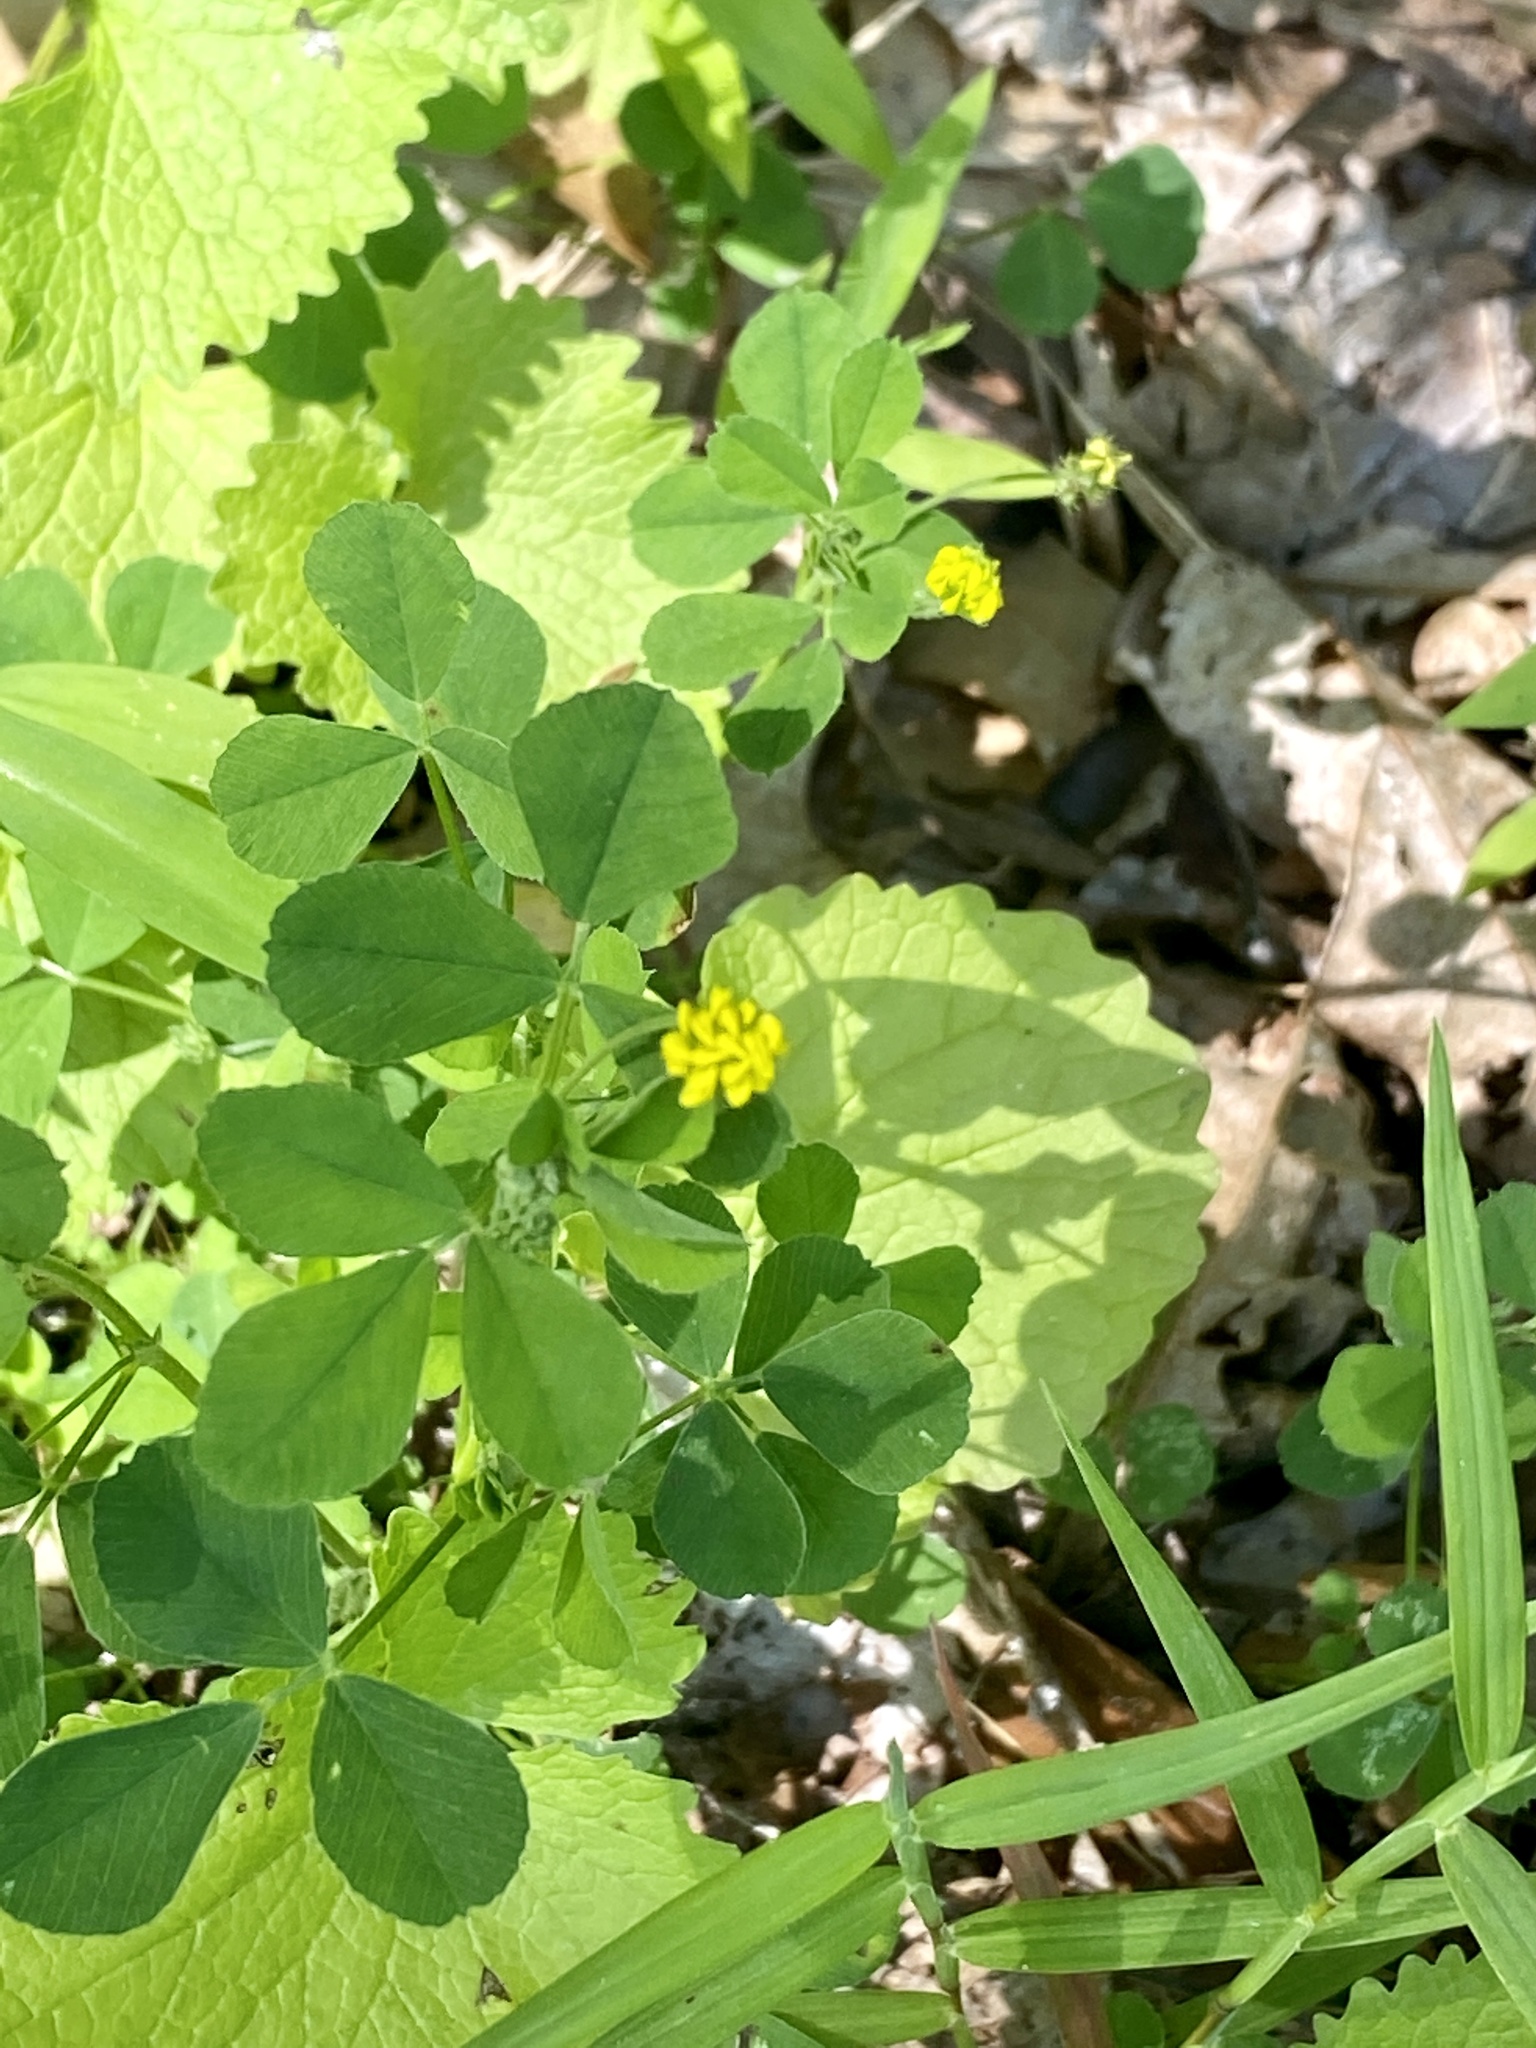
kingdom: Plantae
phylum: Tracheophyta
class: Magnoliopsida
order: Fabales
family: Fabaceae
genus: Medicago
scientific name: Medicago lupulina
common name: Black medick
